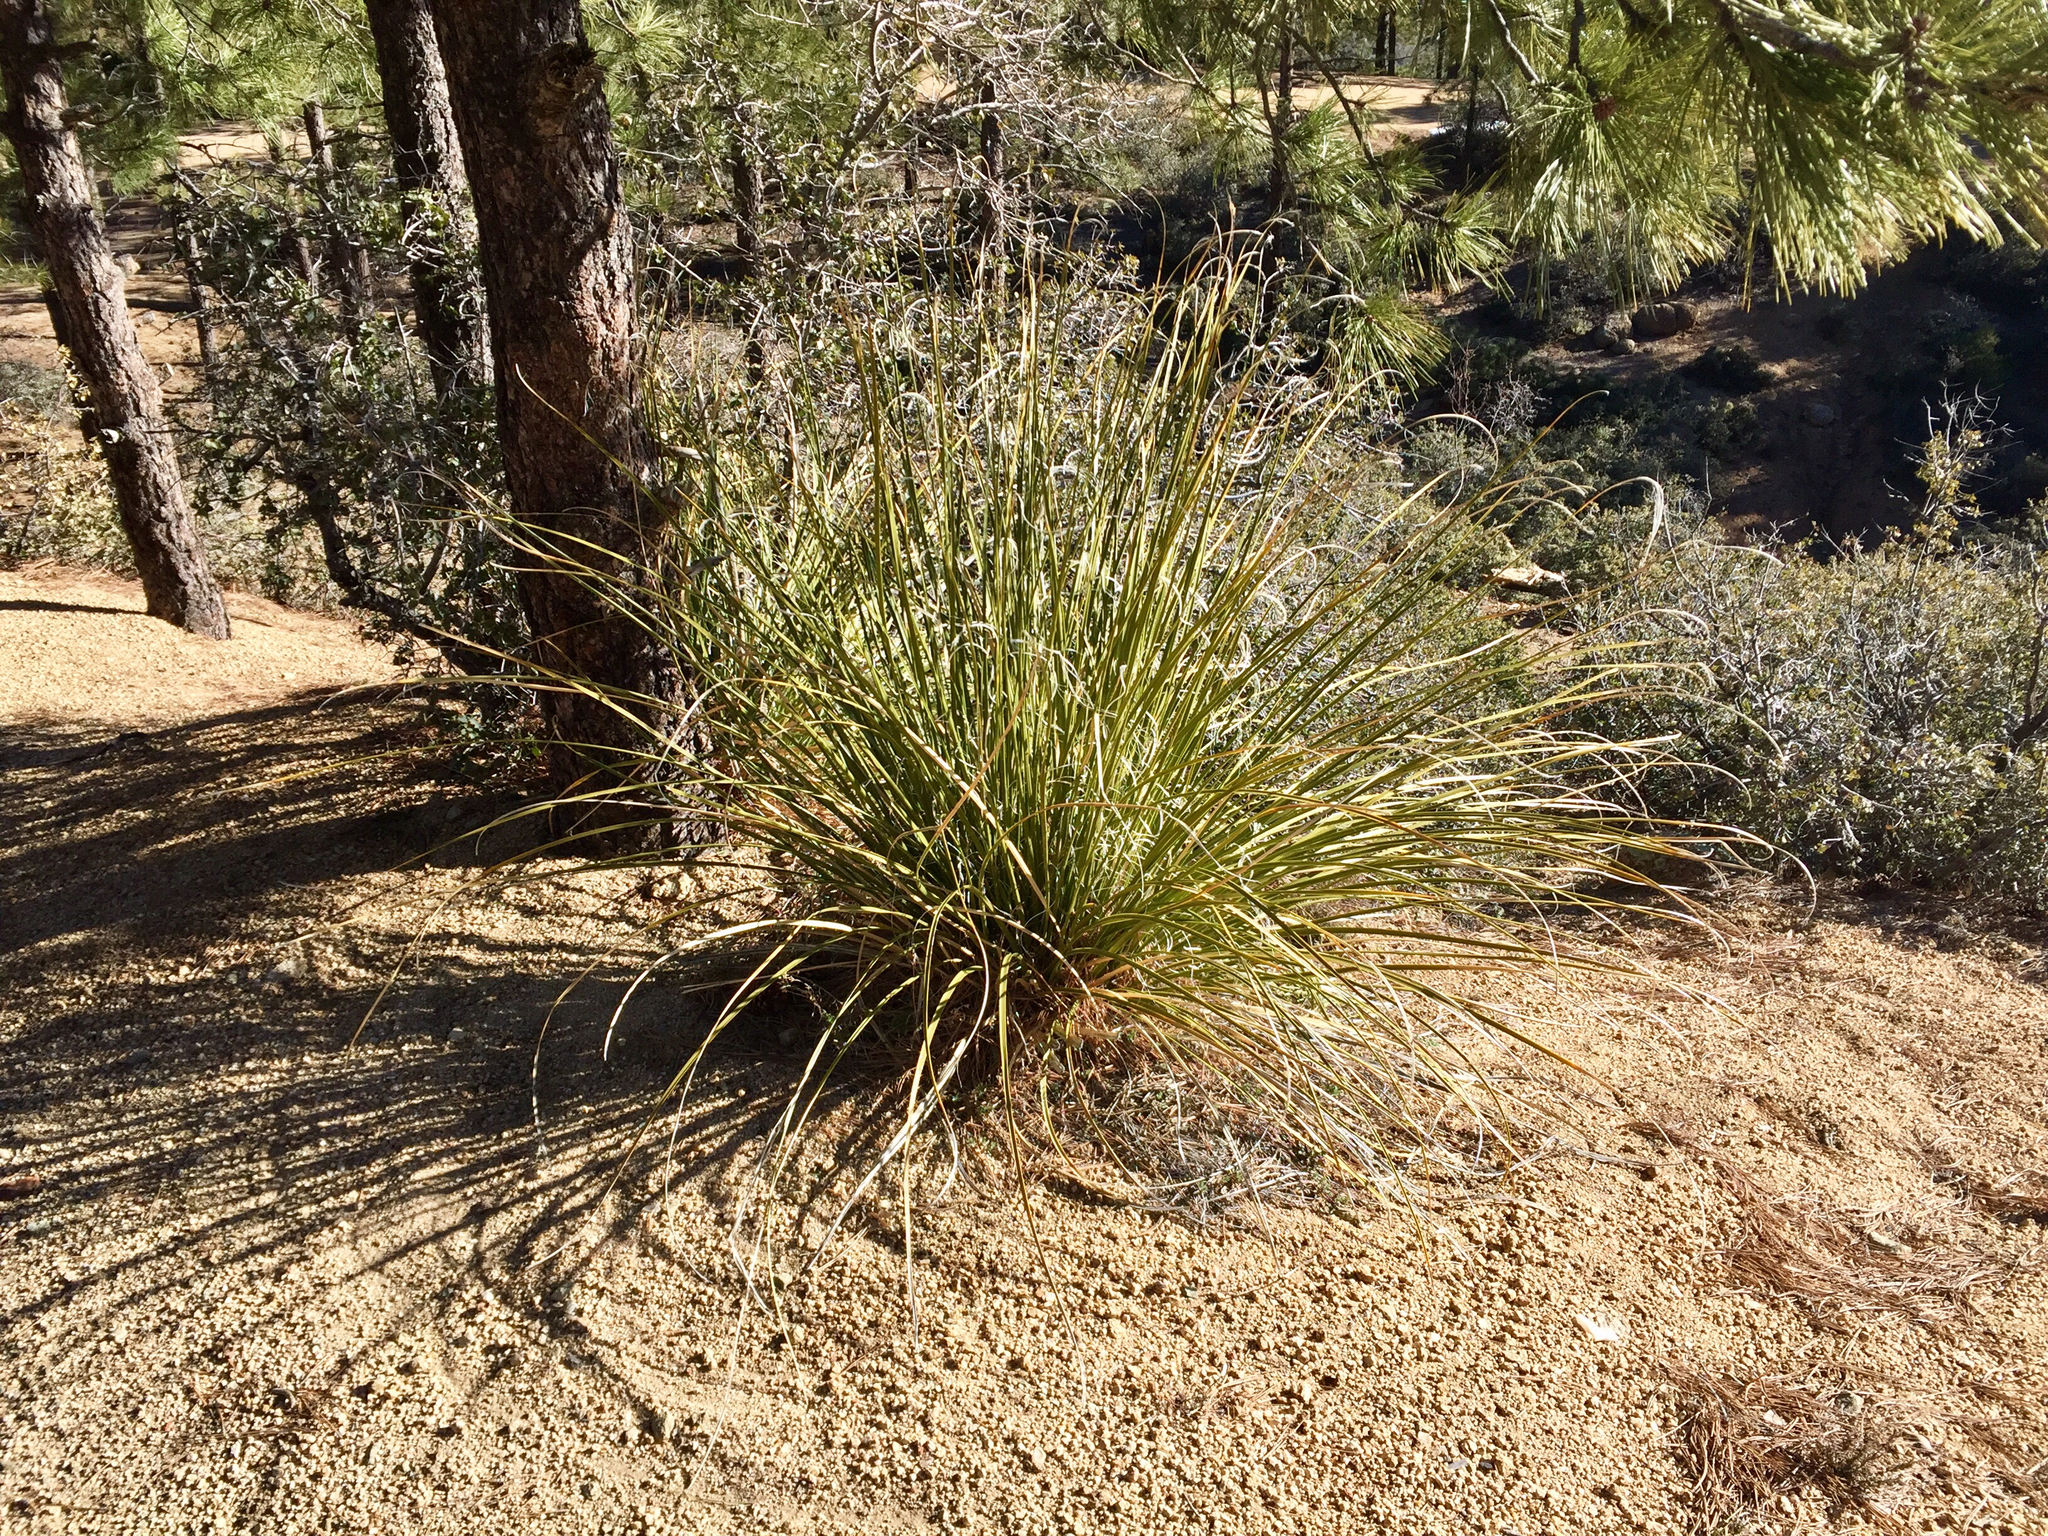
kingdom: Plantae
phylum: Tracheophyta
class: Liliopsida
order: Asparagales
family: Asparagaceae
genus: Nolina
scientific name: Nolina microcarpa
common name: Bear-grass
